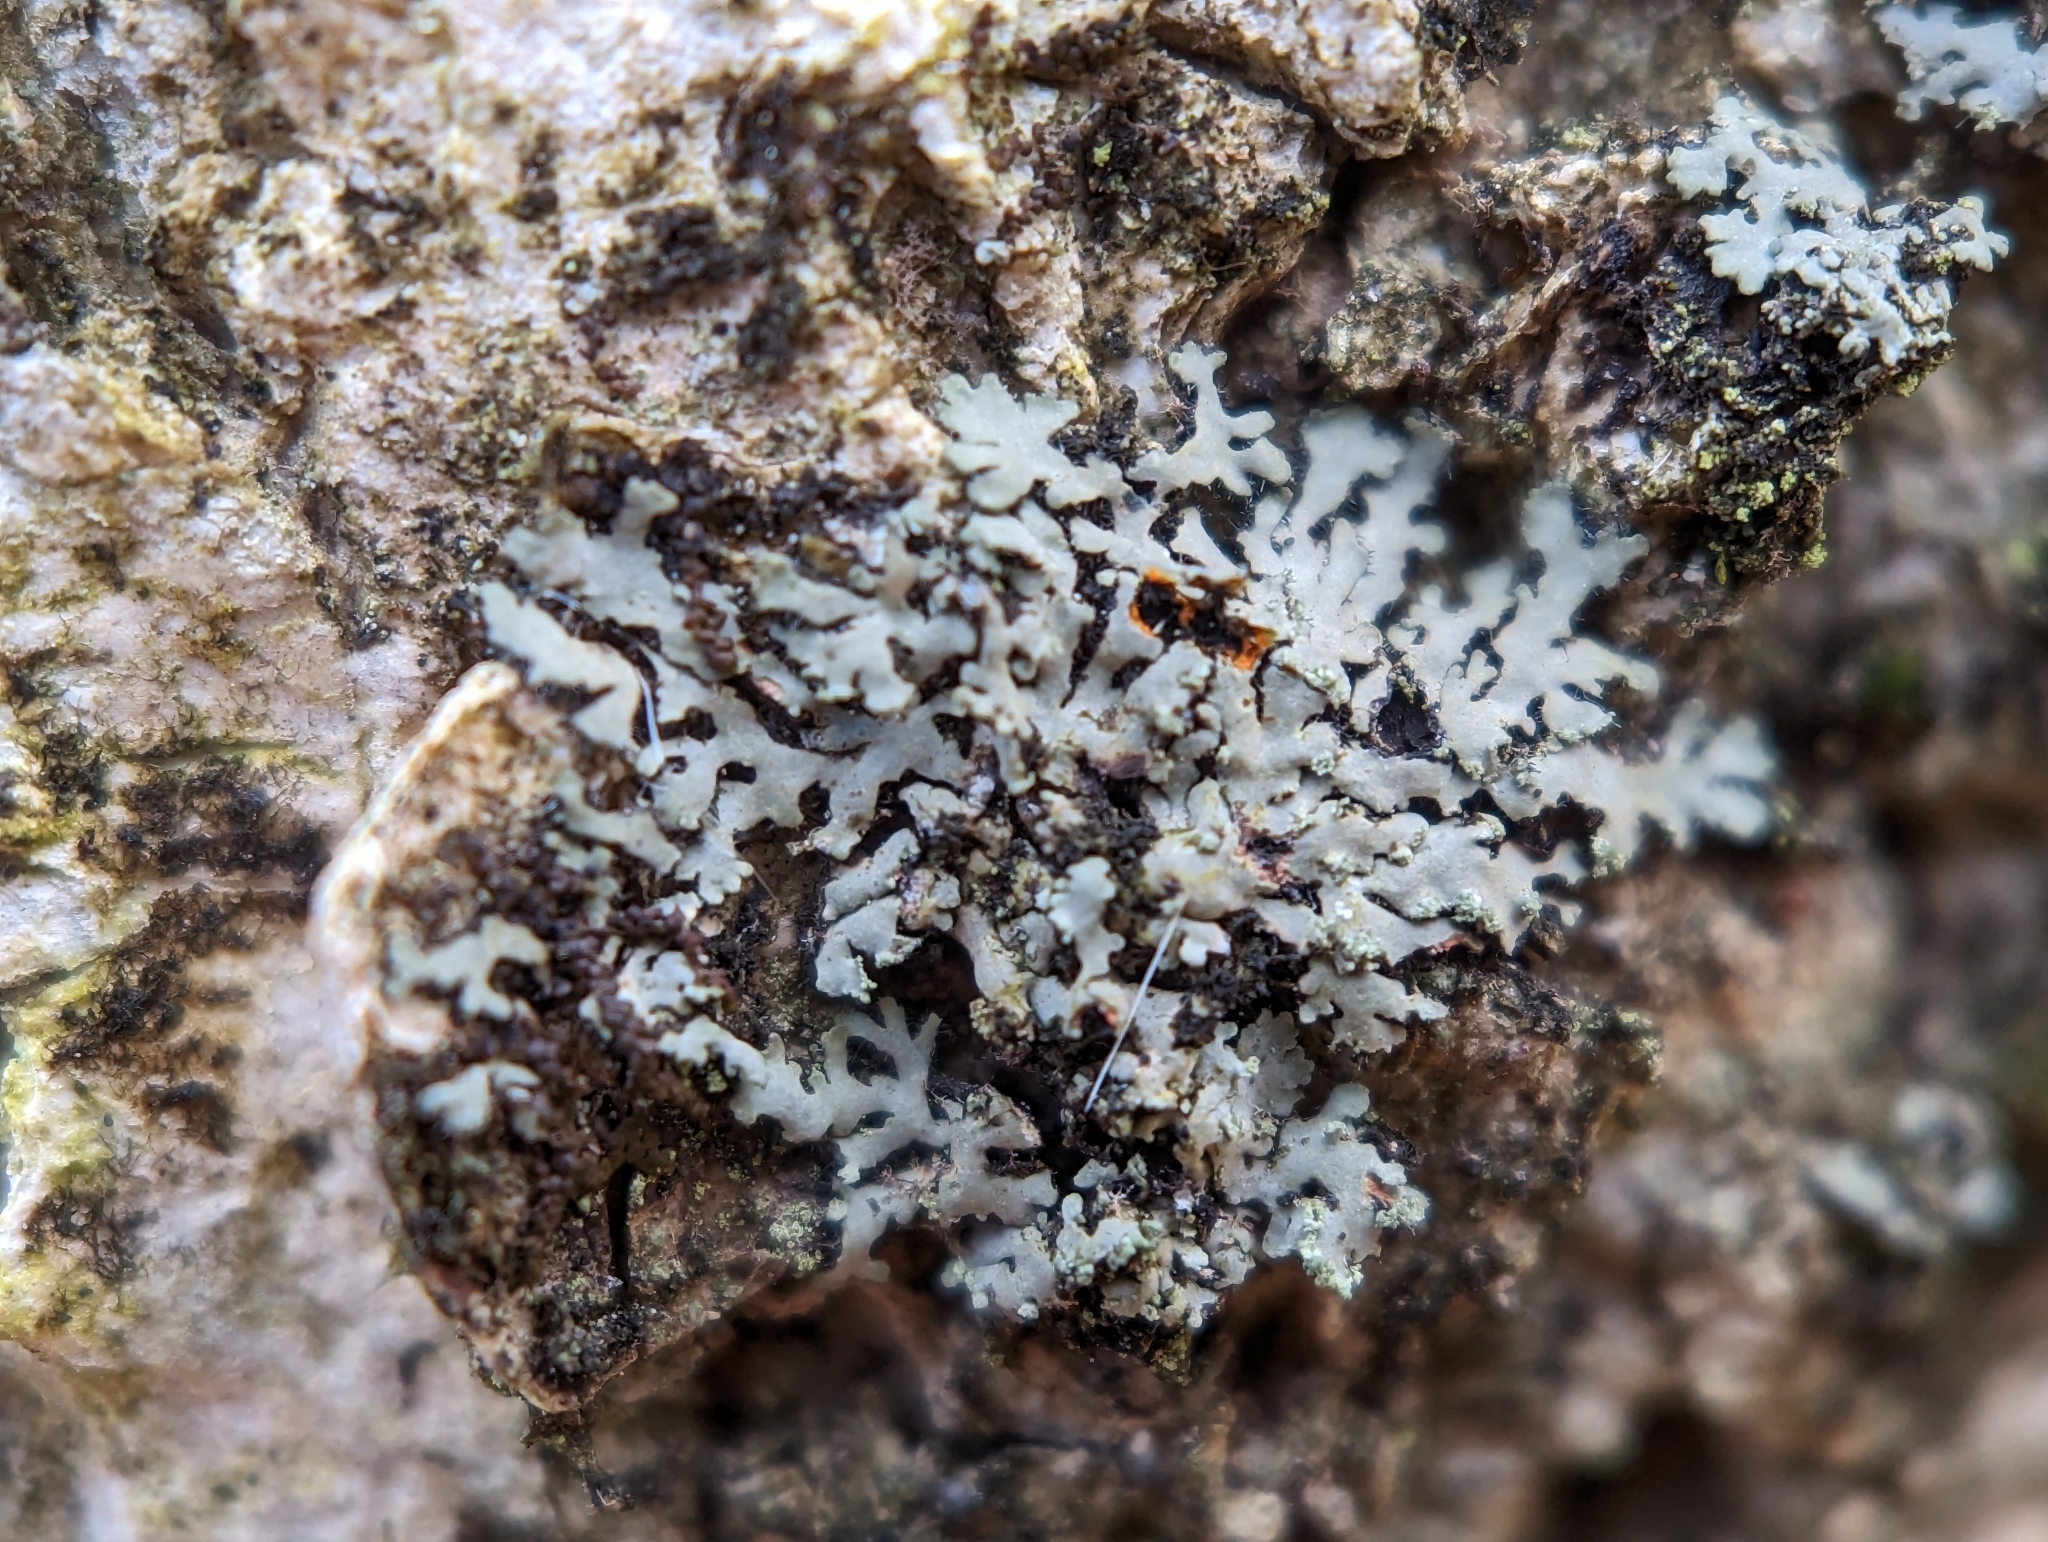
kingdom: Fungi
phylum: Ascomycota
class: Lecanoromycetes
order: Caliciales
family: Physciaceae
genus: Phaeophyscia
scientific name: Phaeophyscia rubropulchra
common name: Orange-cored shadow lichen
